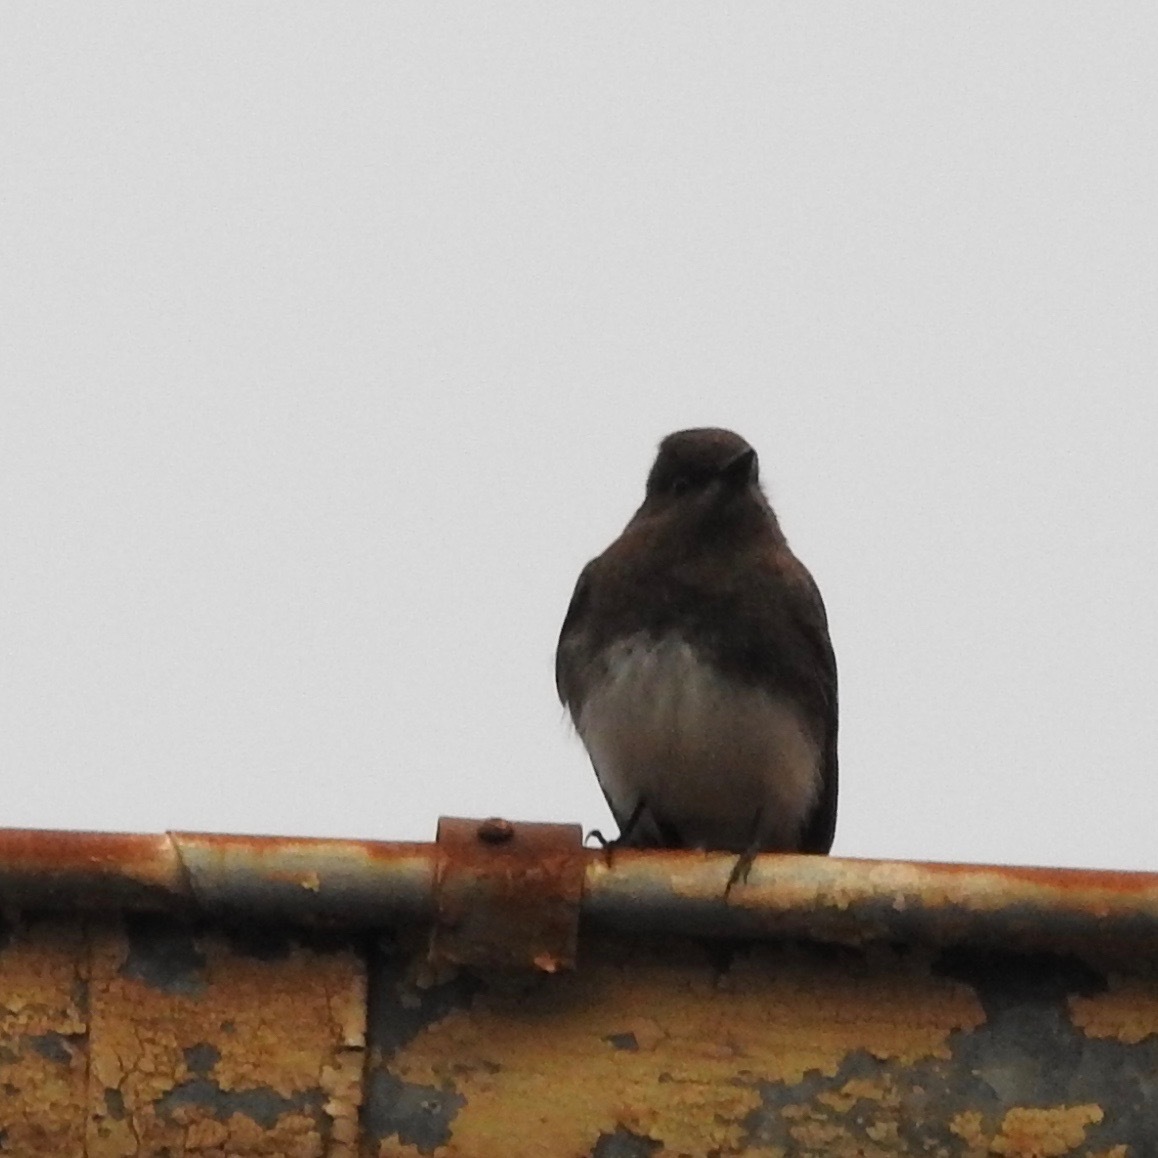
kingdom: Animalia
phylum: Chordata
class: Aves
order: Passeriformes
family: Tyrannidae
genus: Sayornis
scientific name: Sayornis nigricans
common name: Black phoebe
